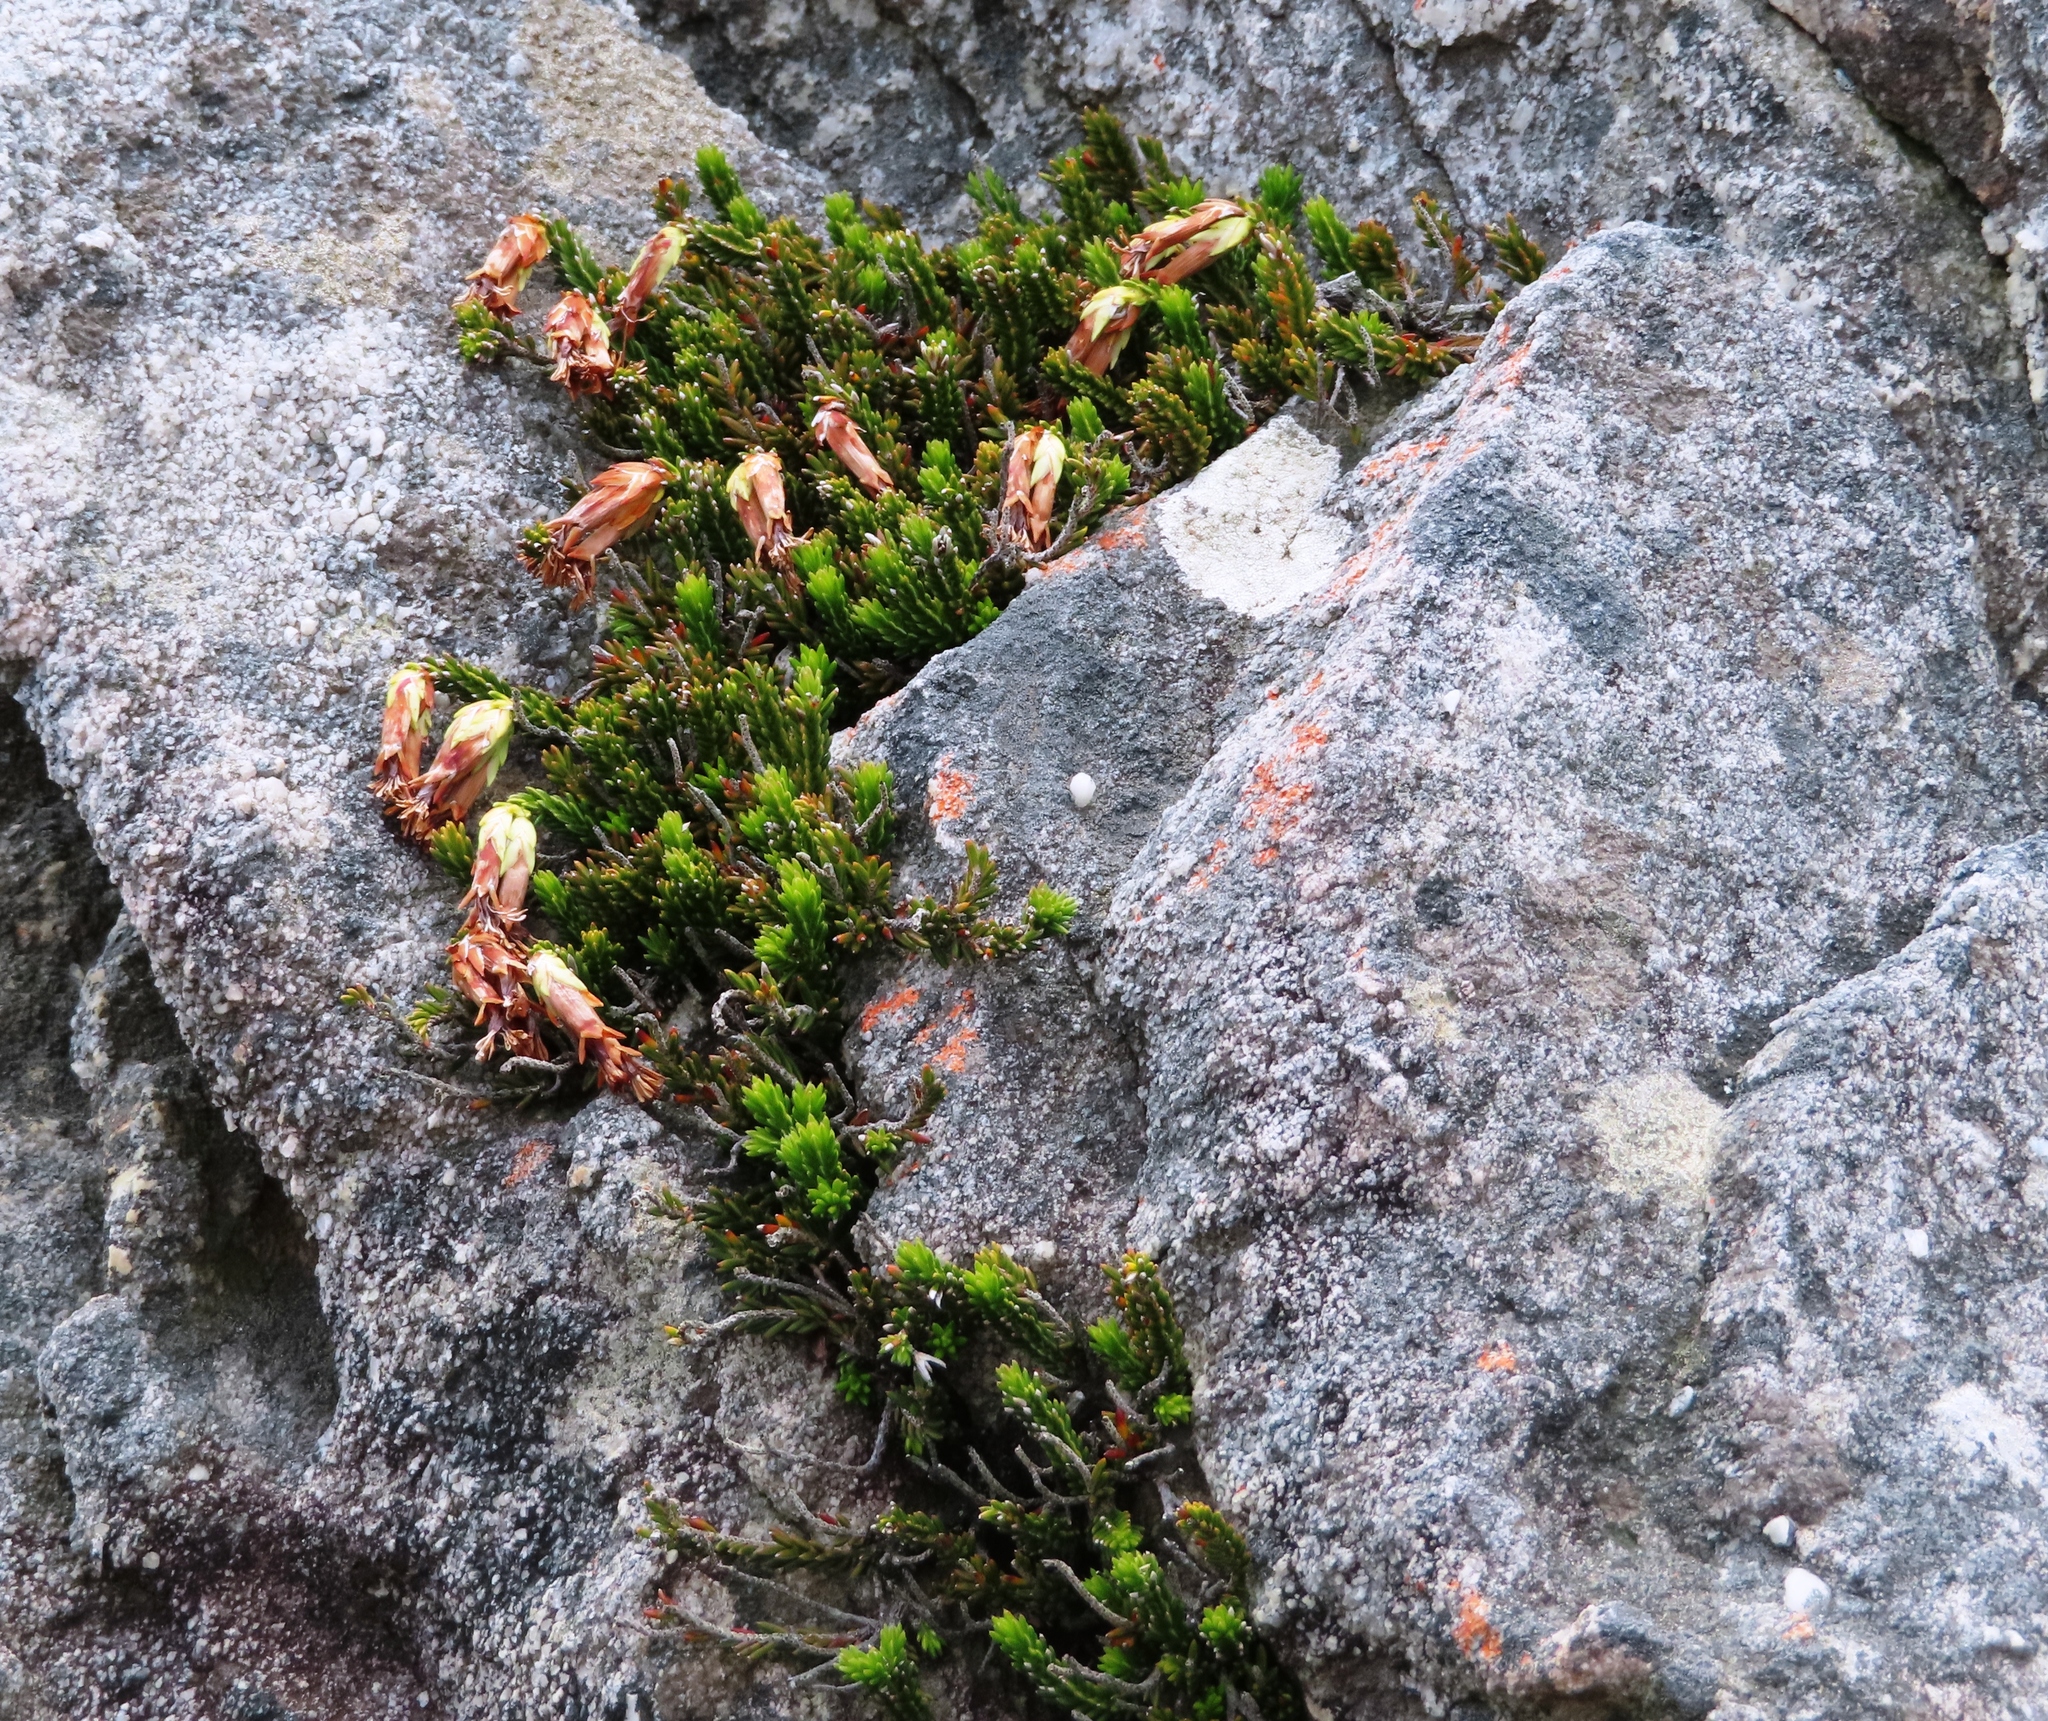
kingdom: Plantae
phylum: Tracheophyta
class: Magnoliopsida
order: Ericales
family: Ericaceae
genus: Erica
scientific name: Erica banksia
